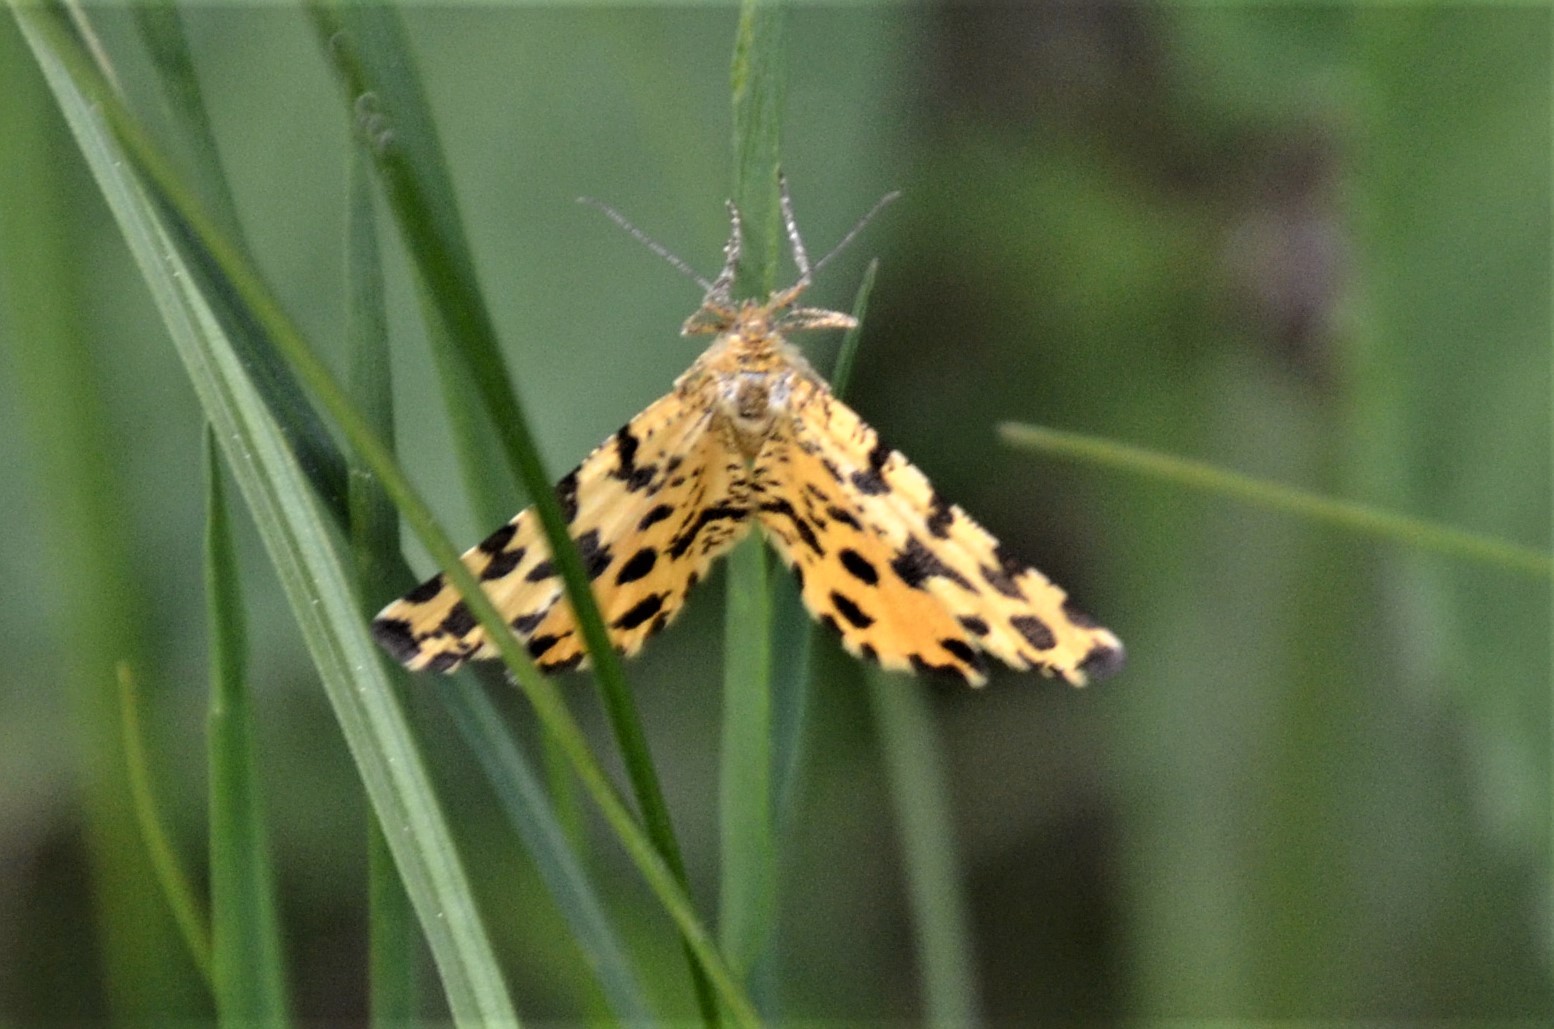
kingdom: Animalia
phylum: Arthropoda
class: Insecta
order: Lepidoptera
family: Geometridae
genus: Pseudopanthera
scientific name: Pseudopanthera macularia
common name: Speckled yellow
